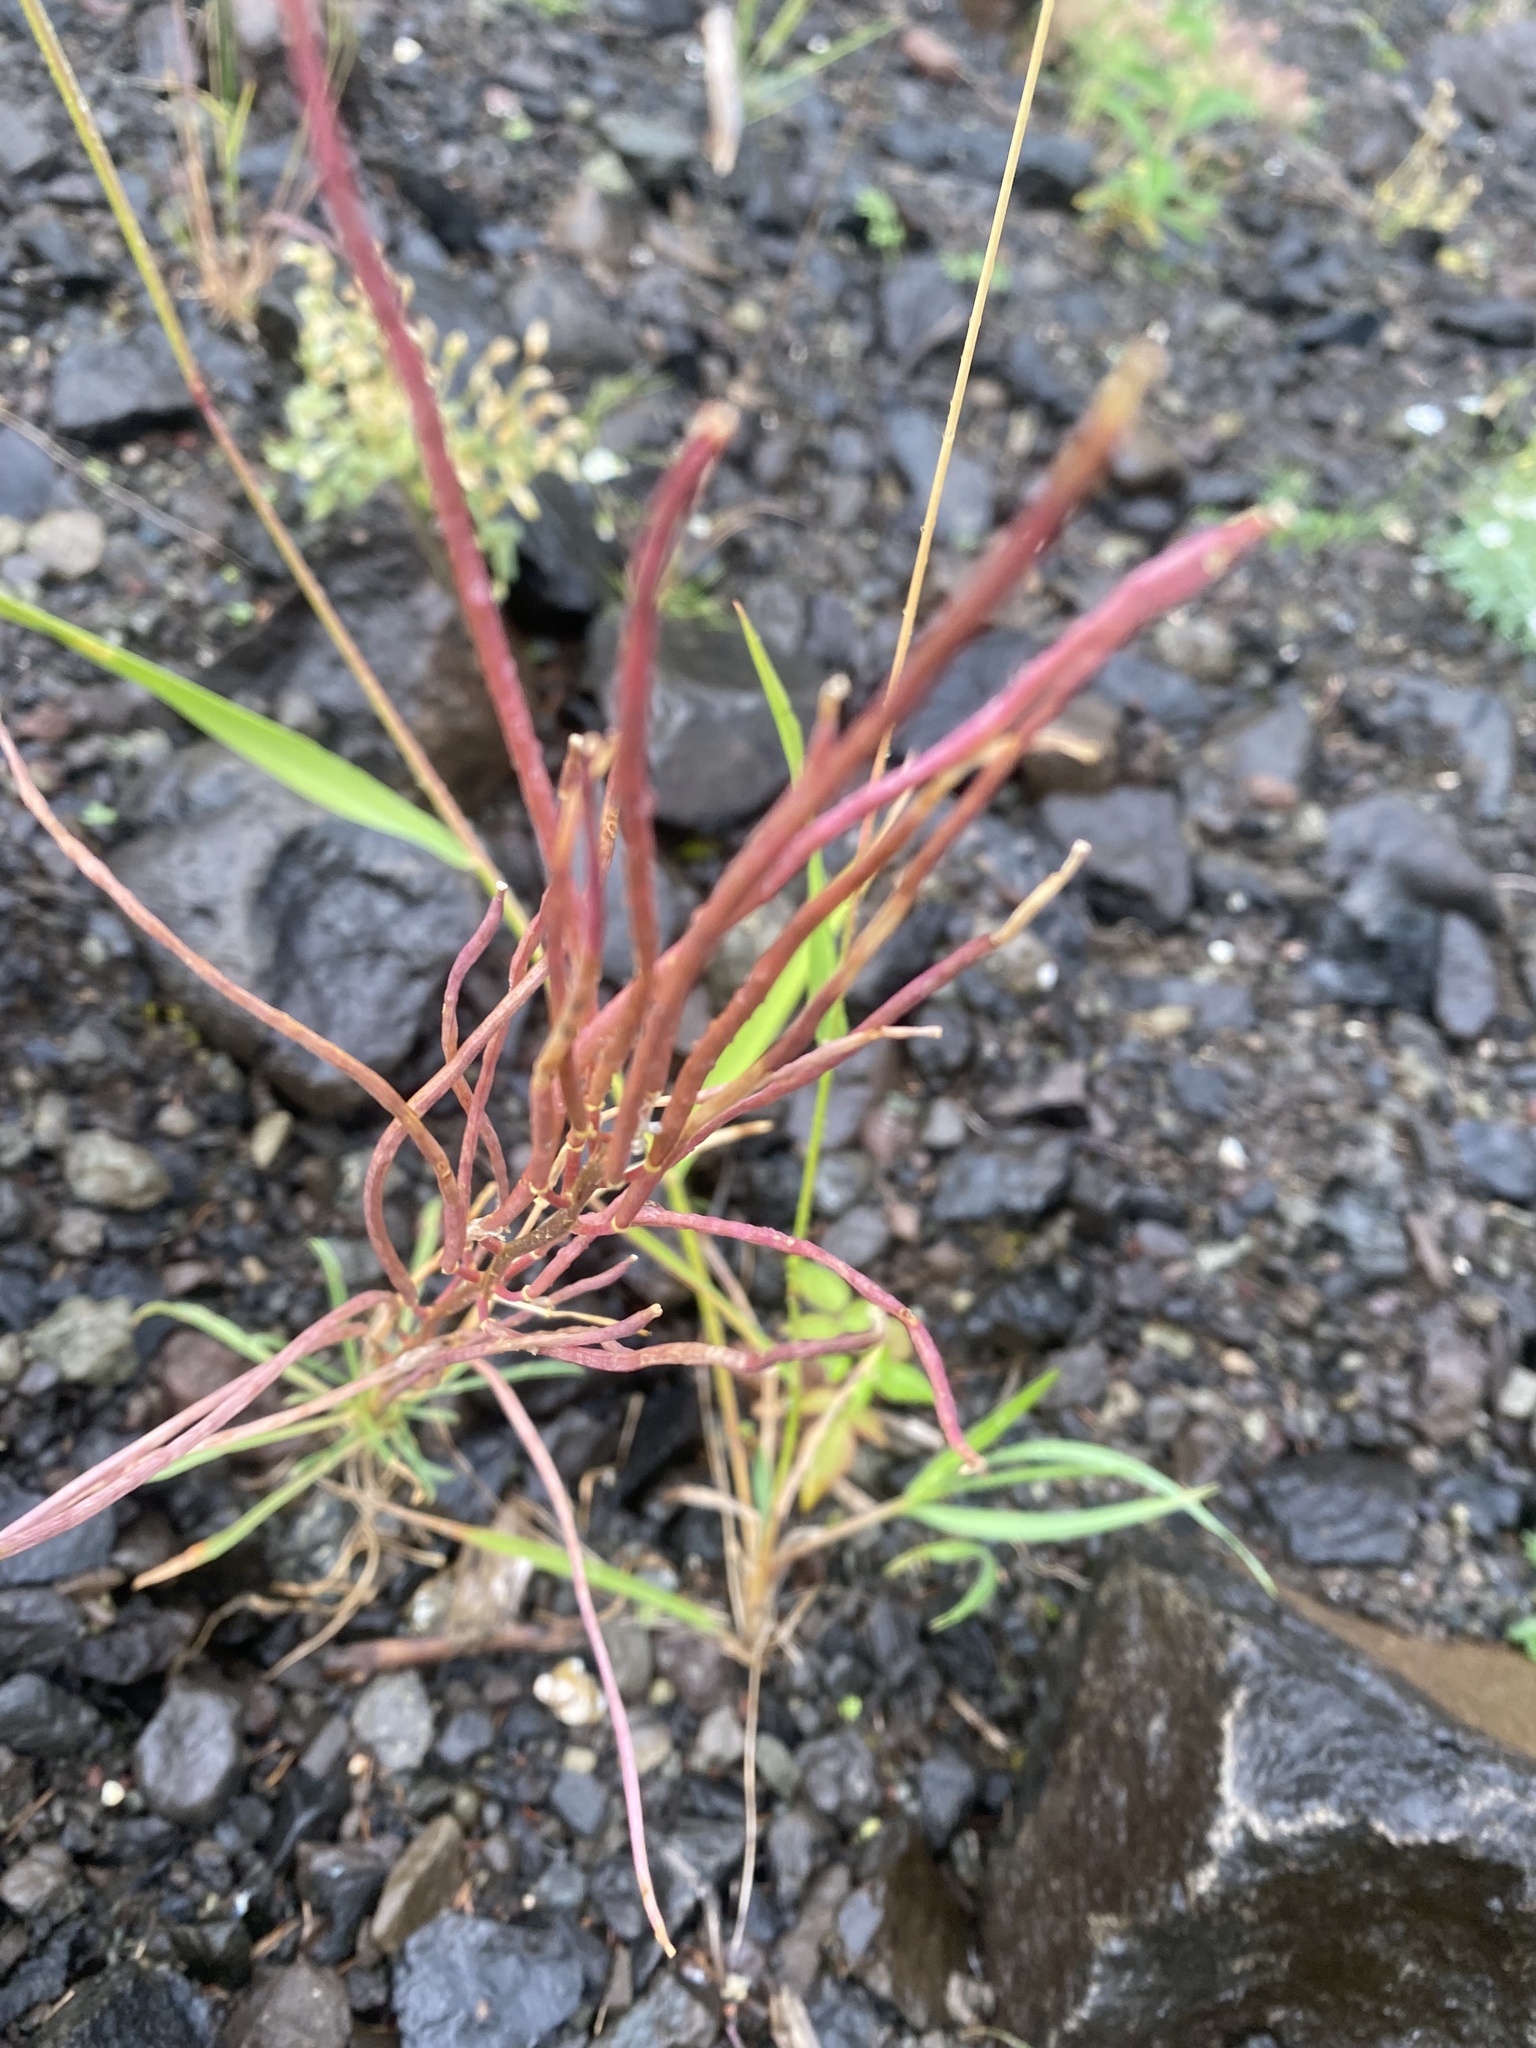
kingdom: Plantae
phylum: Tracheophyta
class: Magnoliopsida
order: Brassicales
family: Brassicaceae
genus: Erysimum
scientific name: Erysimum pallasii
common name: Pallas' wallflower
